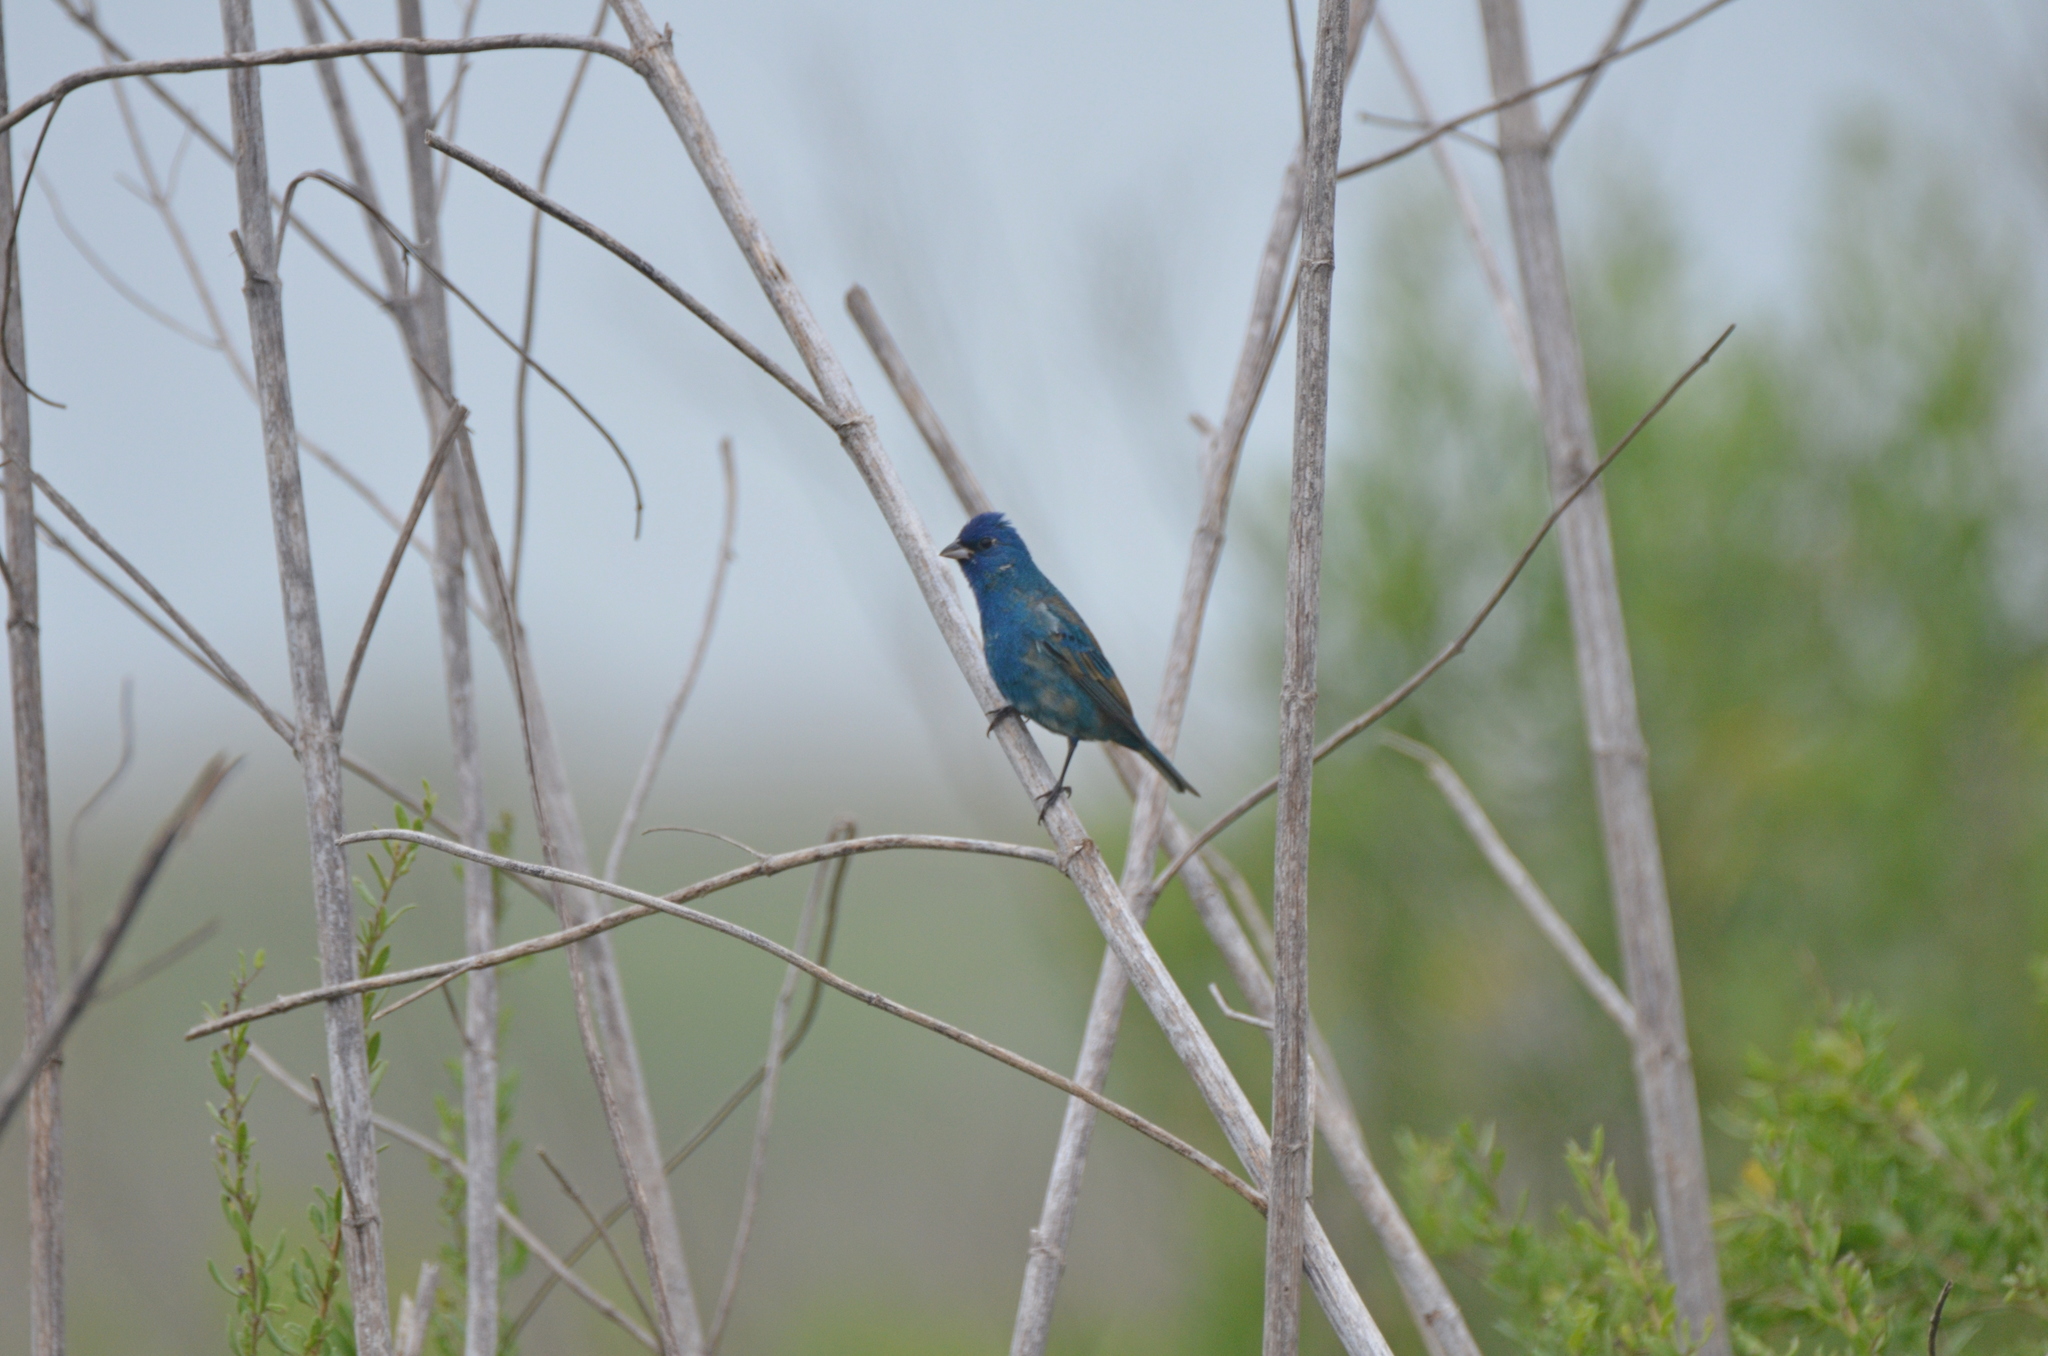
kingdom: Animalia
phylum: Chordata
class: Aves
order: Passeriformes
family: Cardinalidae
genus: Passerina
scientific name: Passerina cyanea
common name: Indigo bunting
